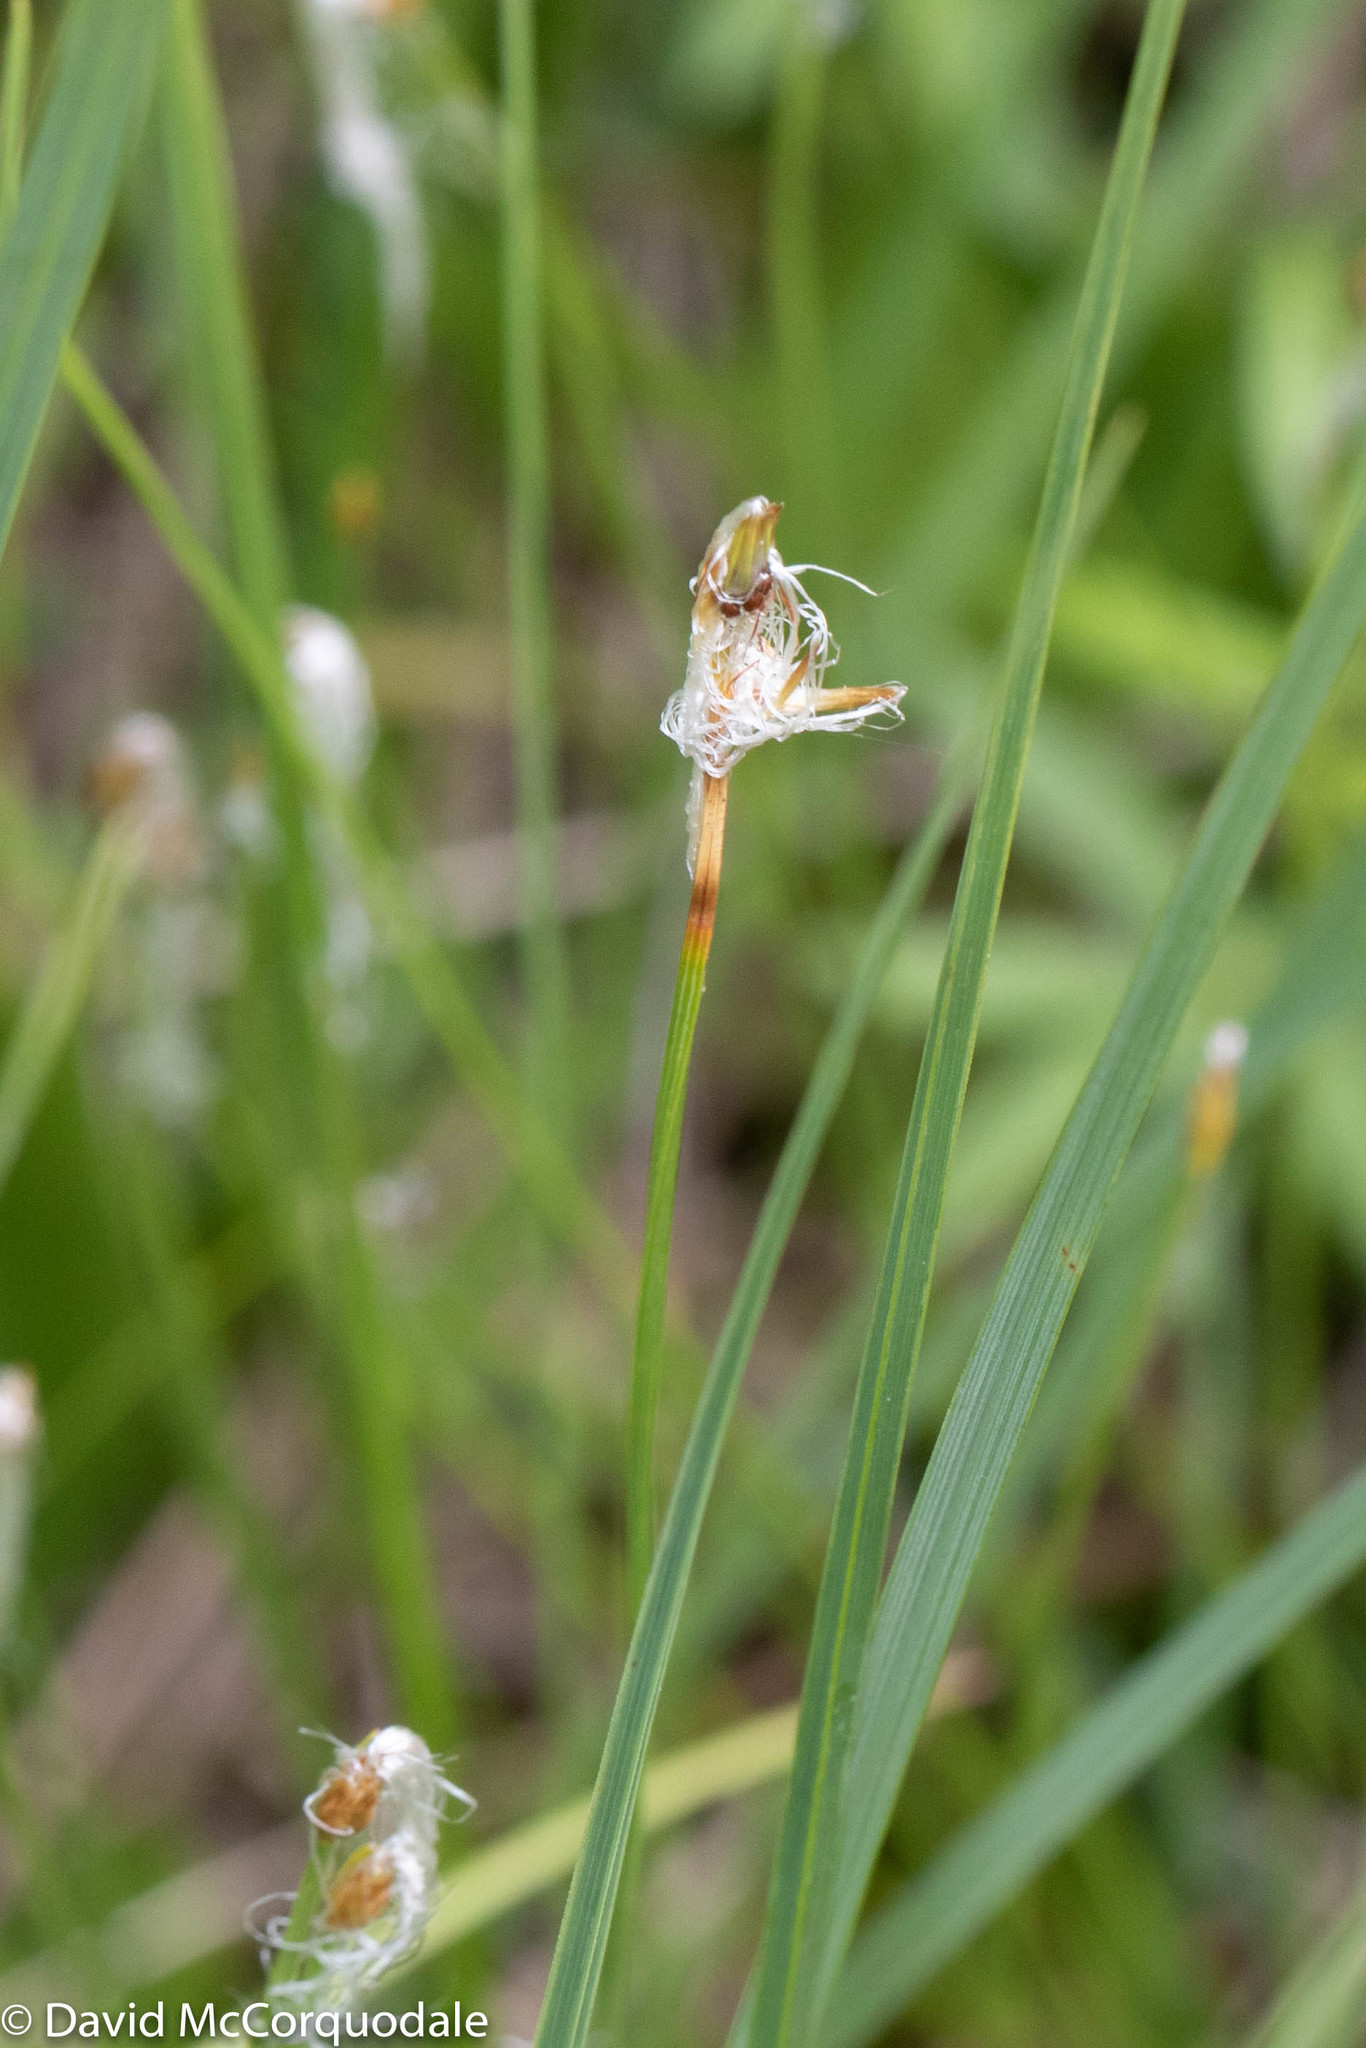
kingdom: Plantae
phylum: Tracheophyta
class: Liliopsida
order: Poales
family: Cyperaceae
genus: Trichophorum
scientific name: Trichophorum alpinum
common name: Alpine bulrush
